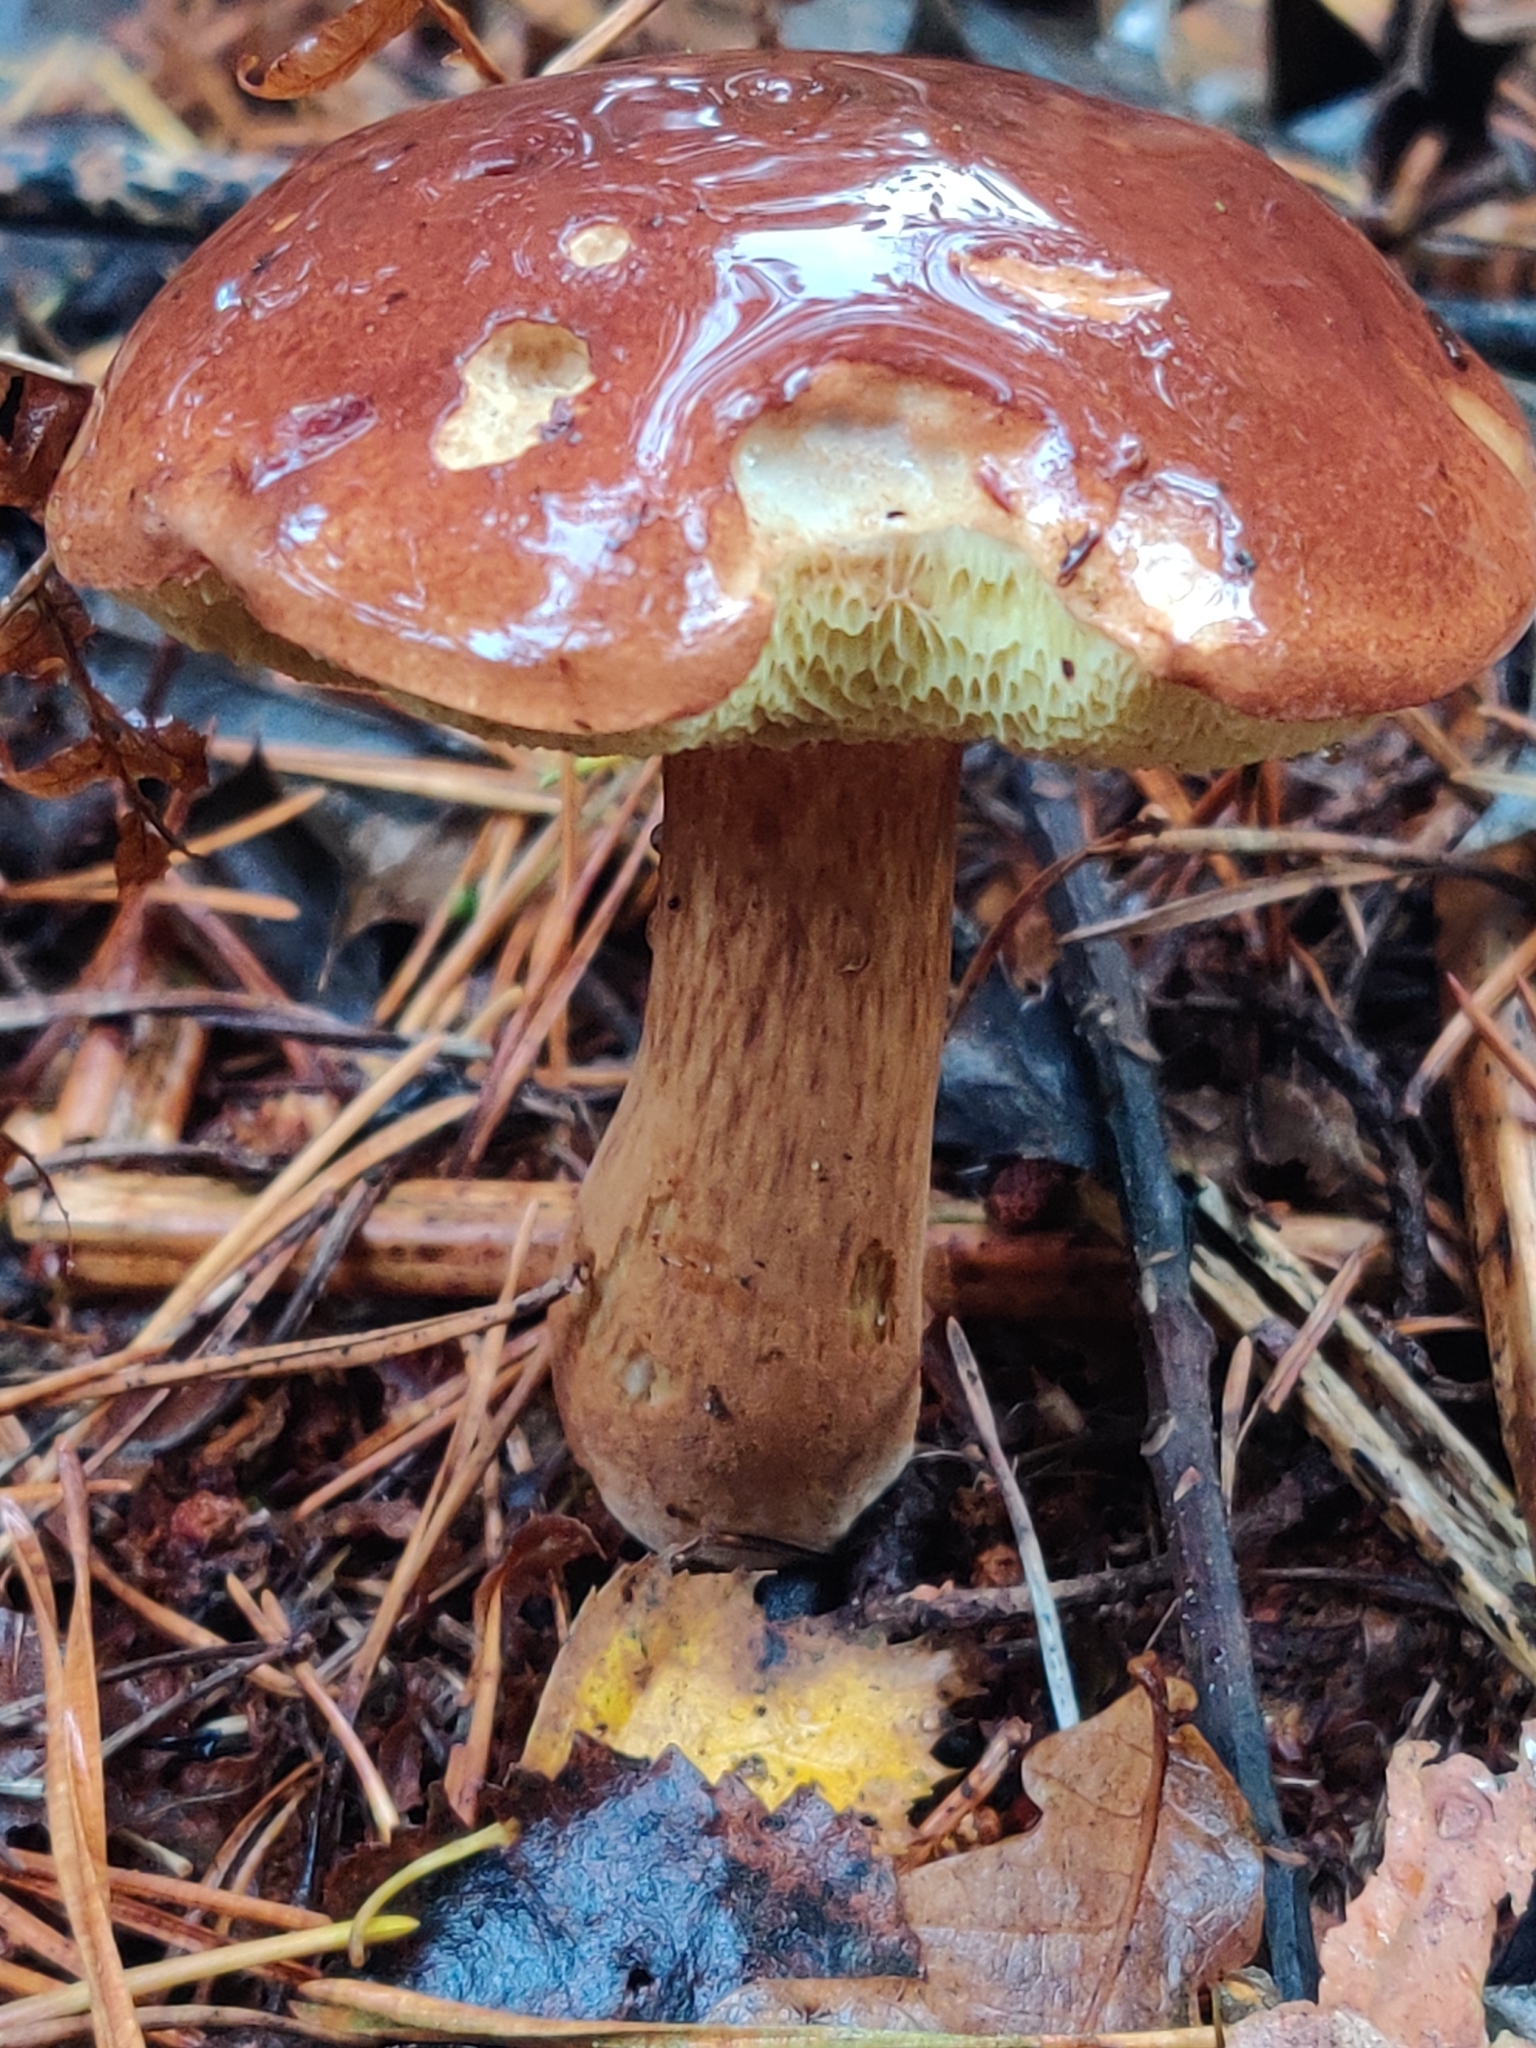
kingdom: Fungi
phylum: Basidiomycota
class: Agaricomycetes
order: Boletales
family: Boletaceae
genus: Imleria
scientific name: Imleria badia
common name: Bay bolete
